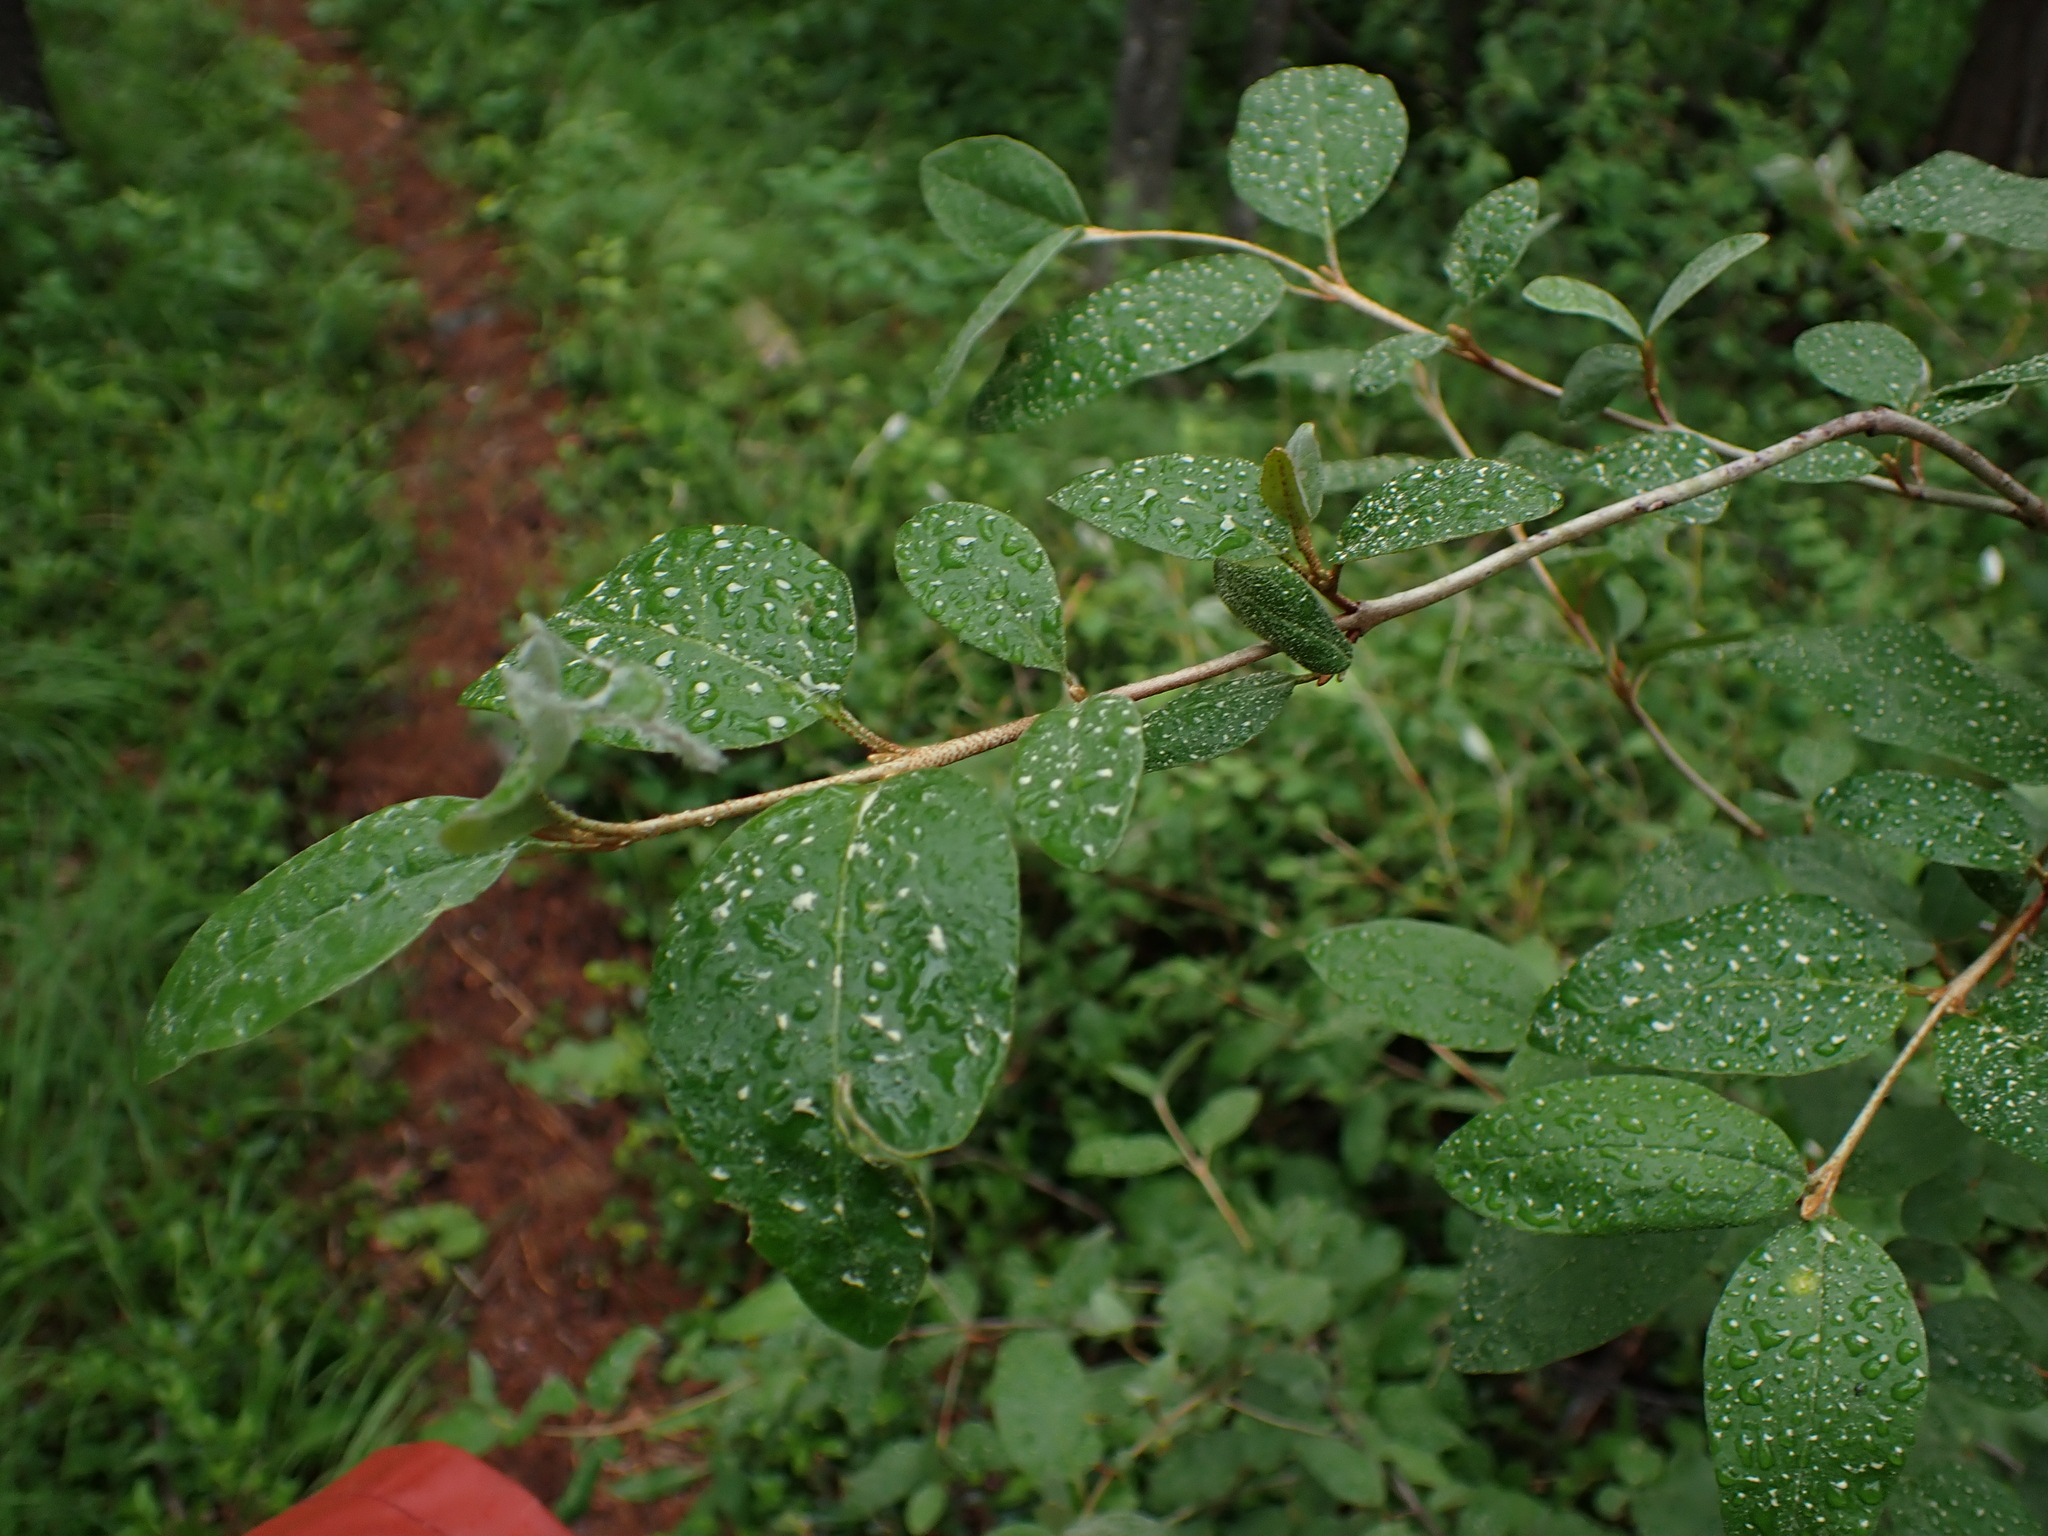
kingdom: Plantae
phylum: Tracheophyta
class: Magnoliopsida
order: Rosales
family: Elaeagnaceae
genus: Shepherdia
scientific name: Shepherdia canadensis
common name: Soapberry
